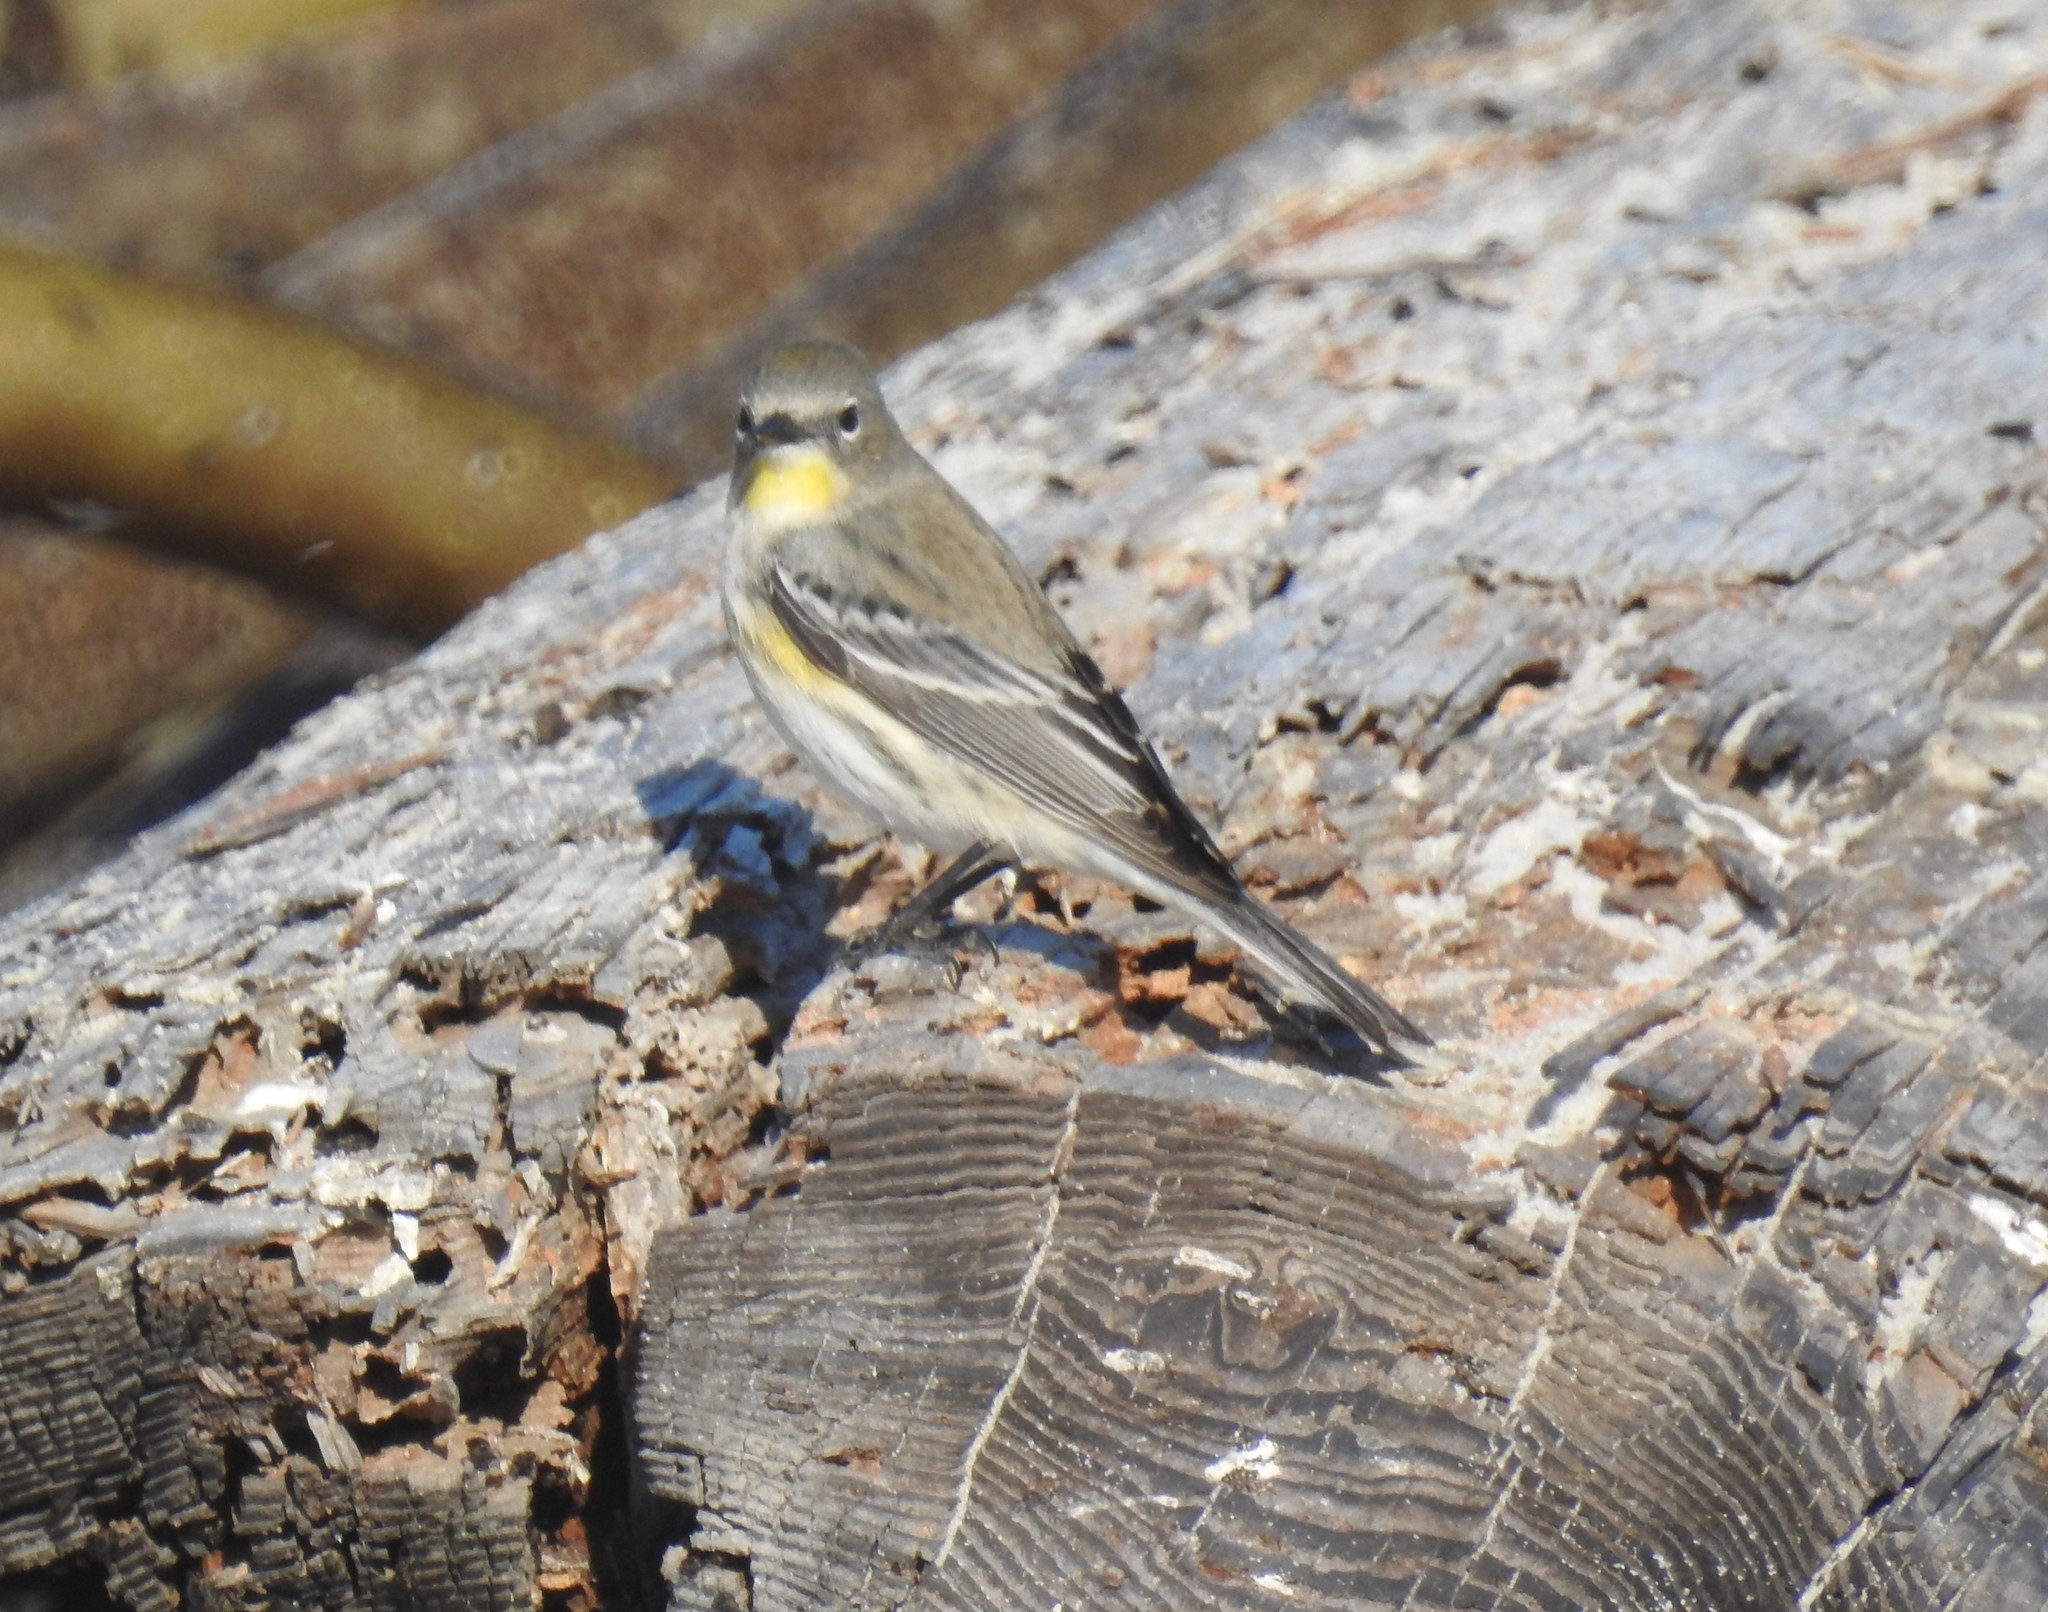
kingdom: Animalia
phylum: Chordata
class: Aves
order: Passeriformes
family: Parulidae
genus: Setophaga
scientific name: Setophaga coronata
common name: Myrtle warbler
